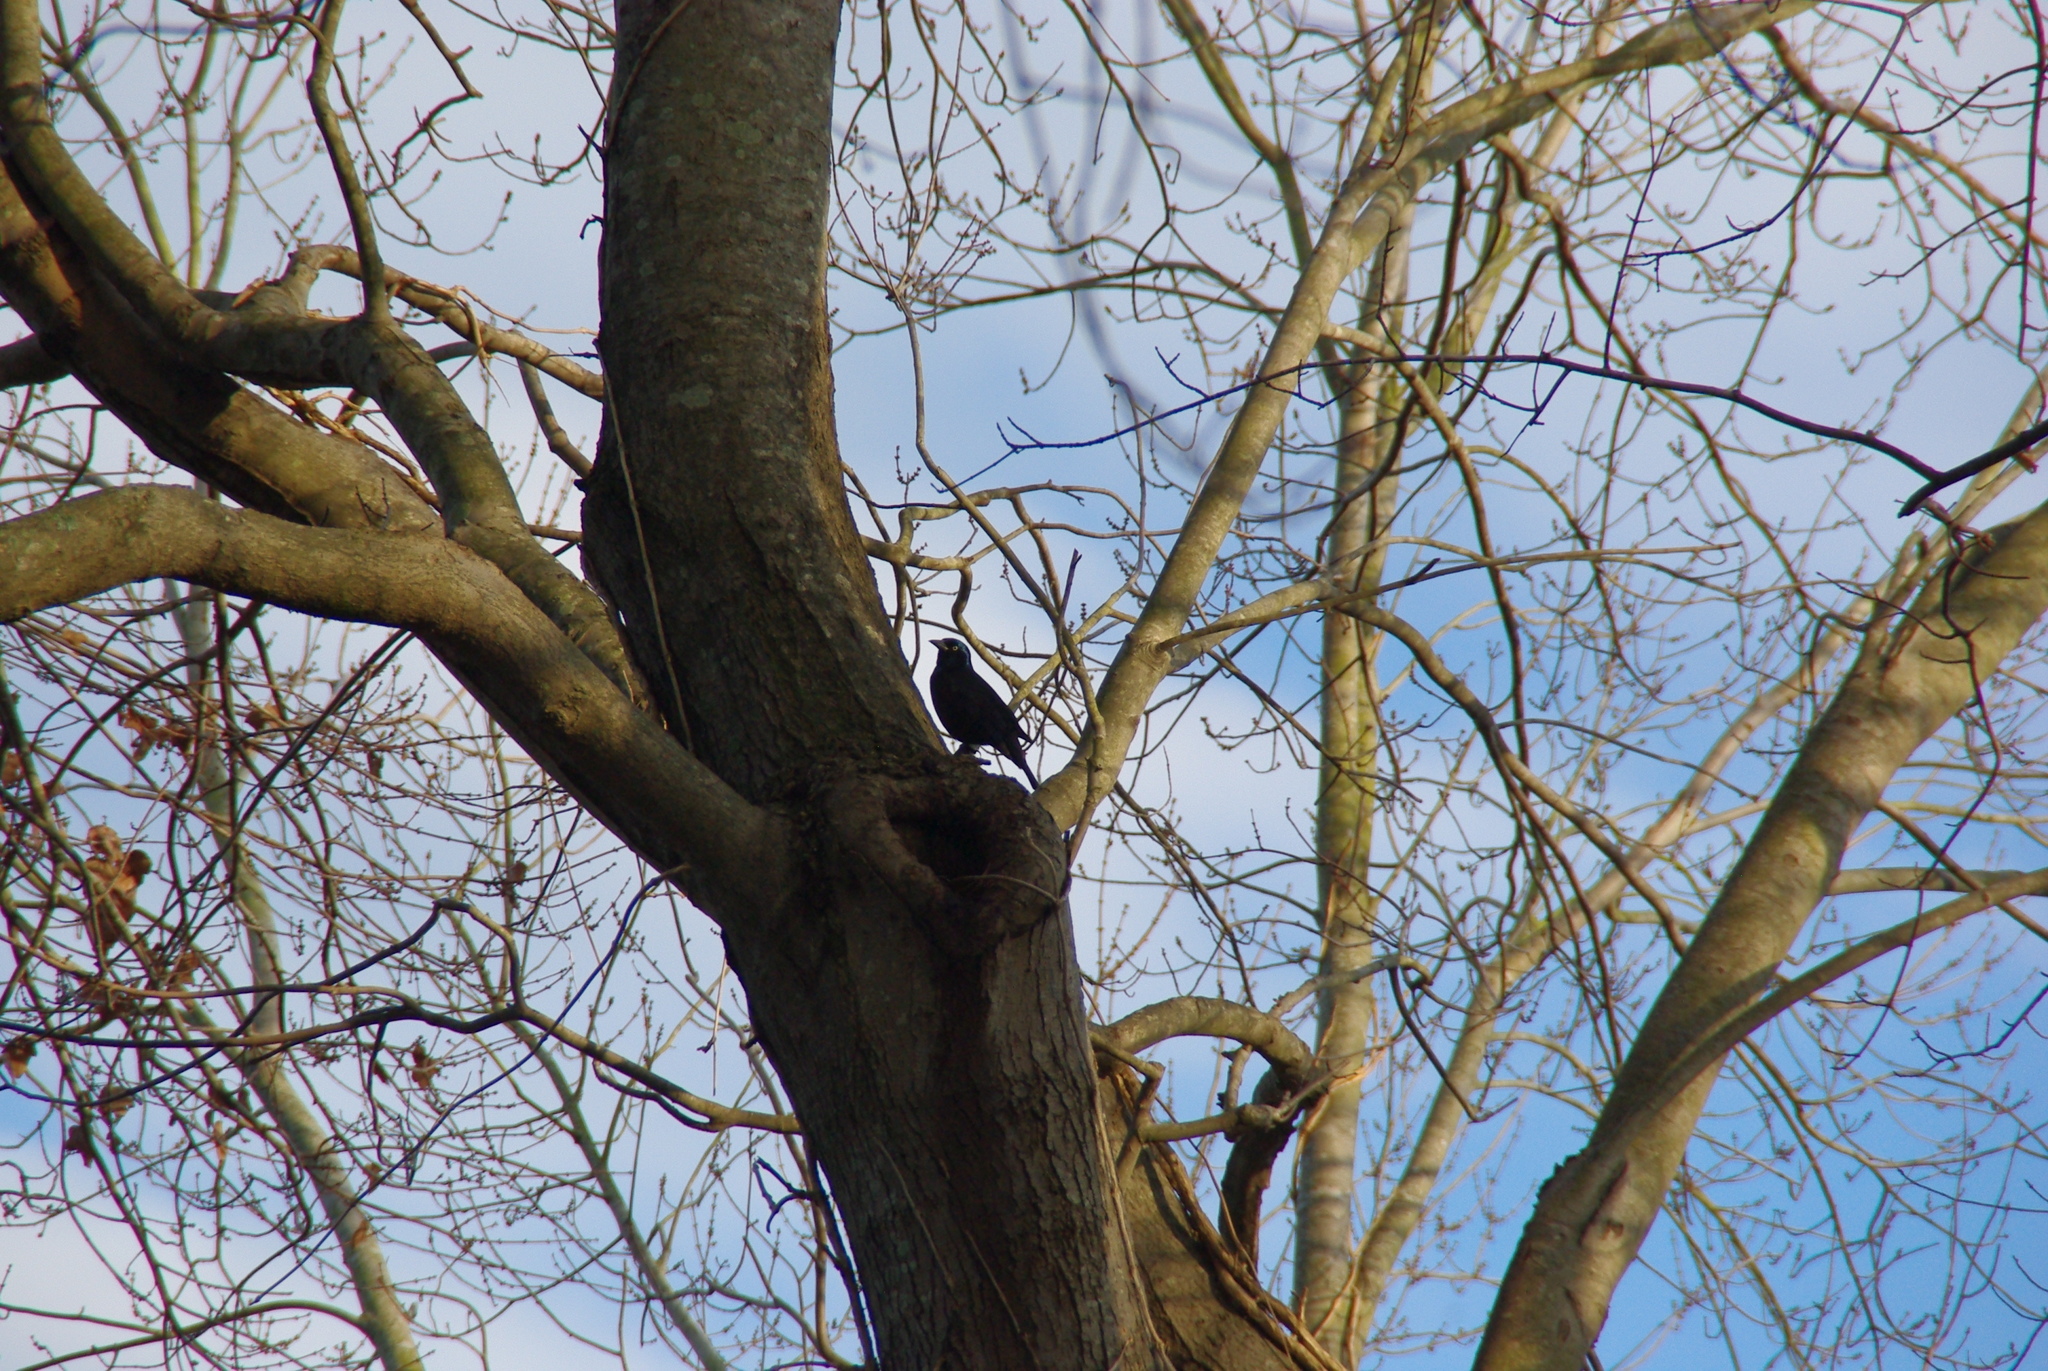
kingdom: Animalia
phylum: Chordata
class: Aves
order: Passeriformes
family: Icteridae
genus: Quiscalus
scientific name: Quiscalus quiscula
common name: Common grackle
